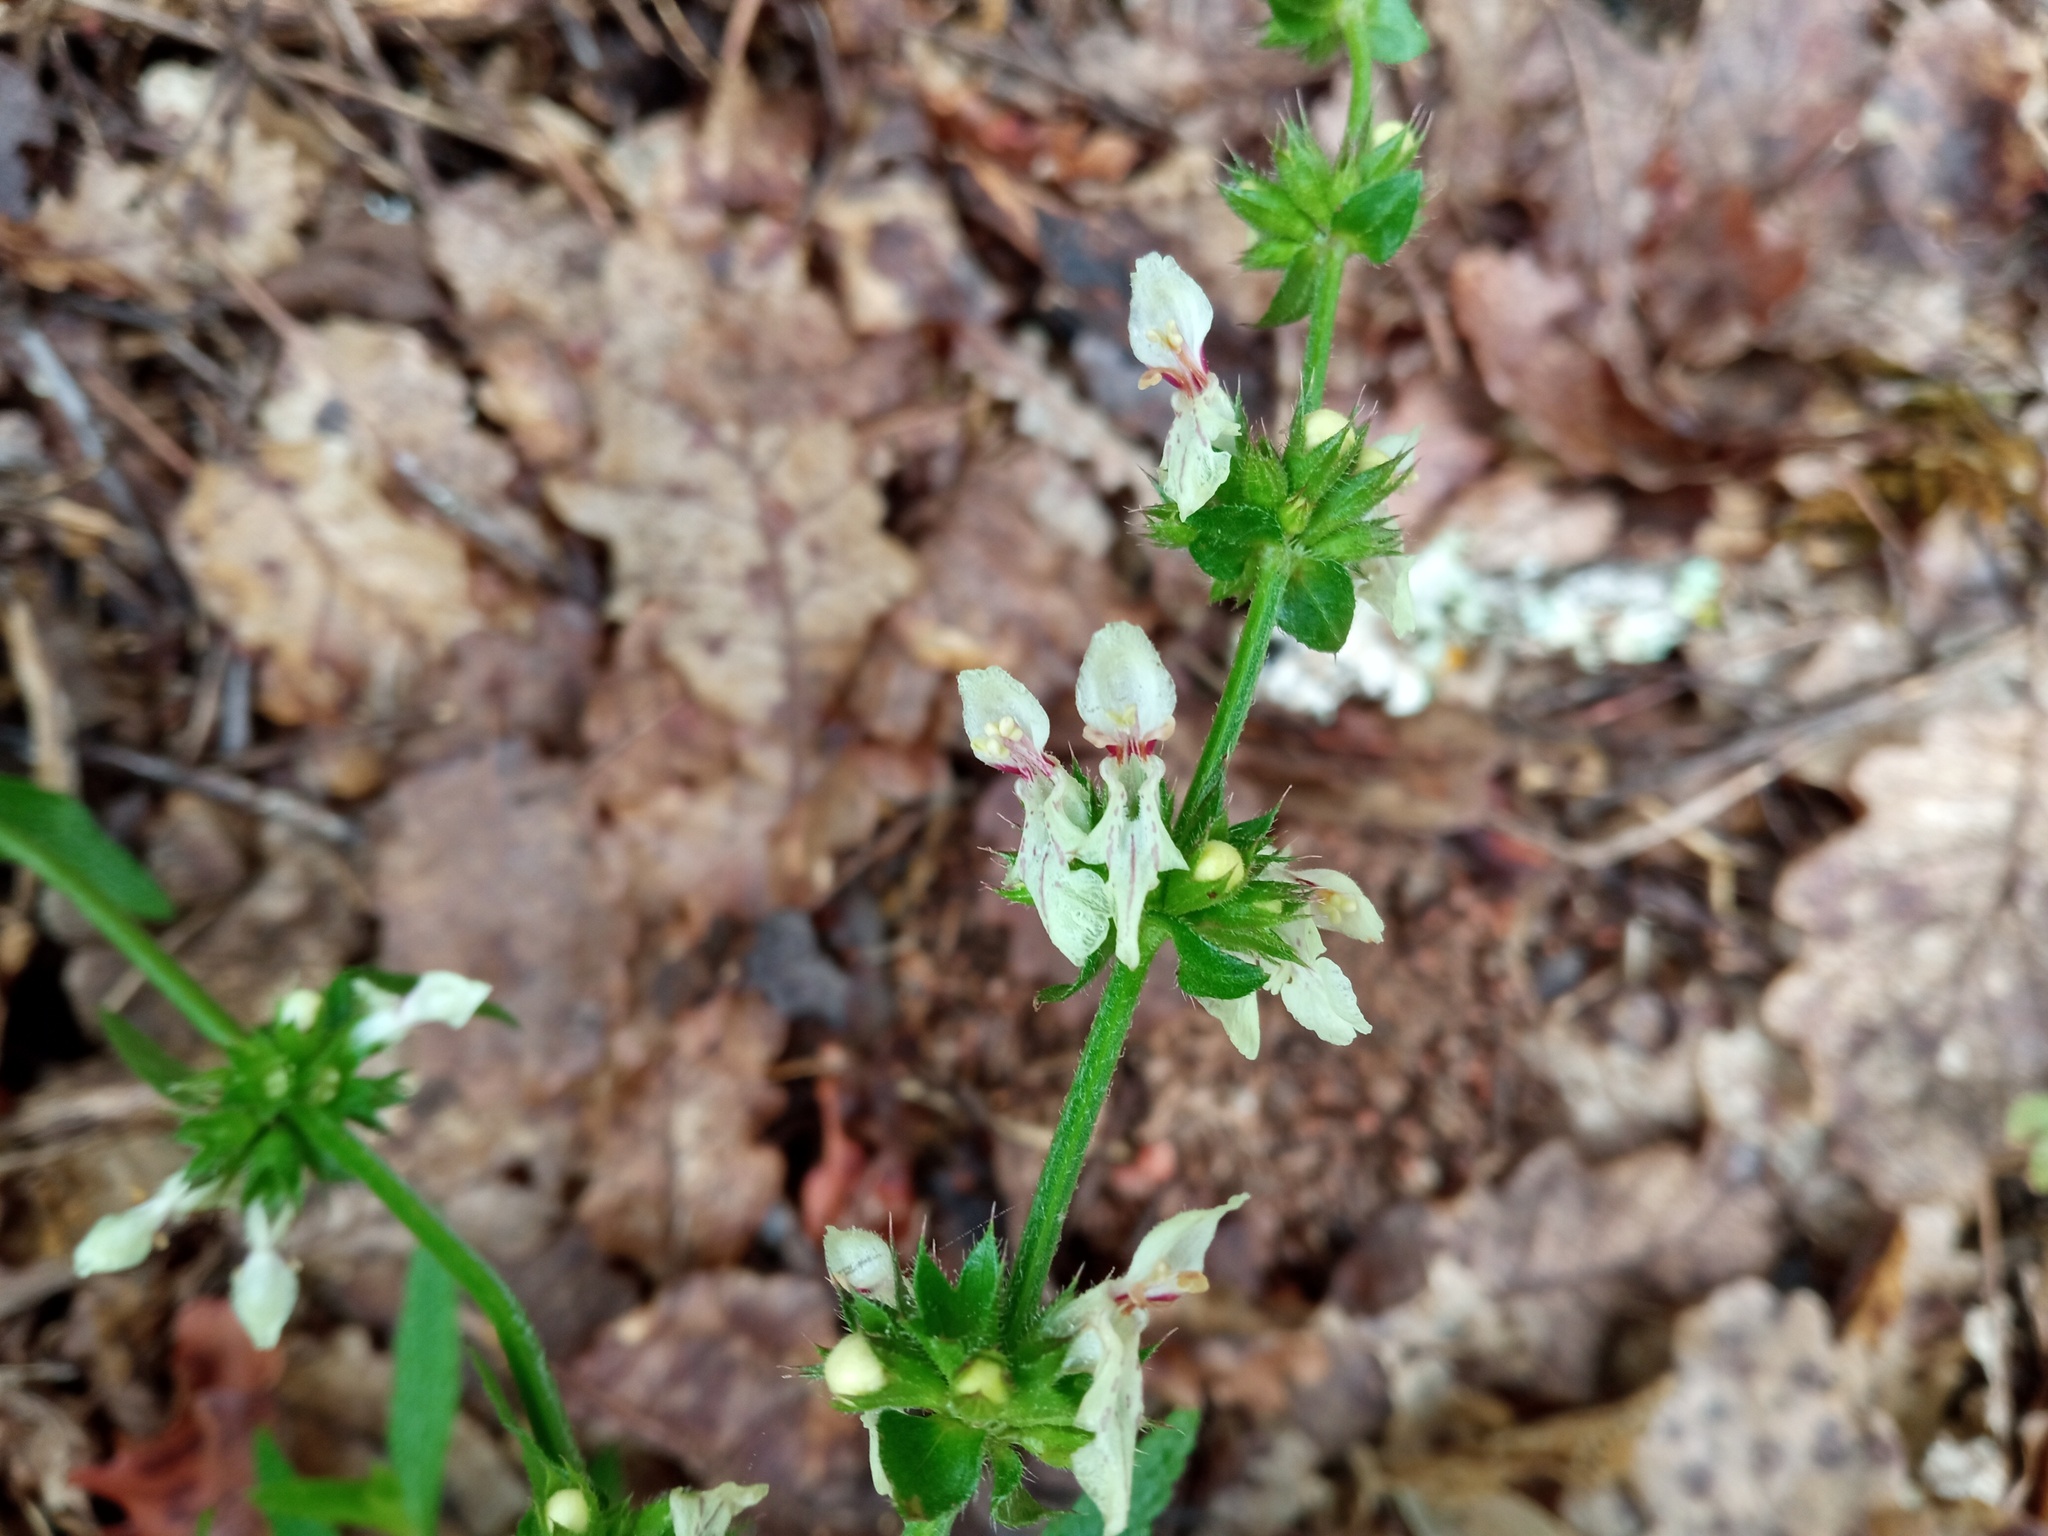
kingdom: Plantae
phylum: Tracheophyta
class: Magnoliopsida
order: Lamiales
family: Lamiaceae
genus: Stachys
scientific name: Stachys recta
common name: Perennial yellow-woundwort
